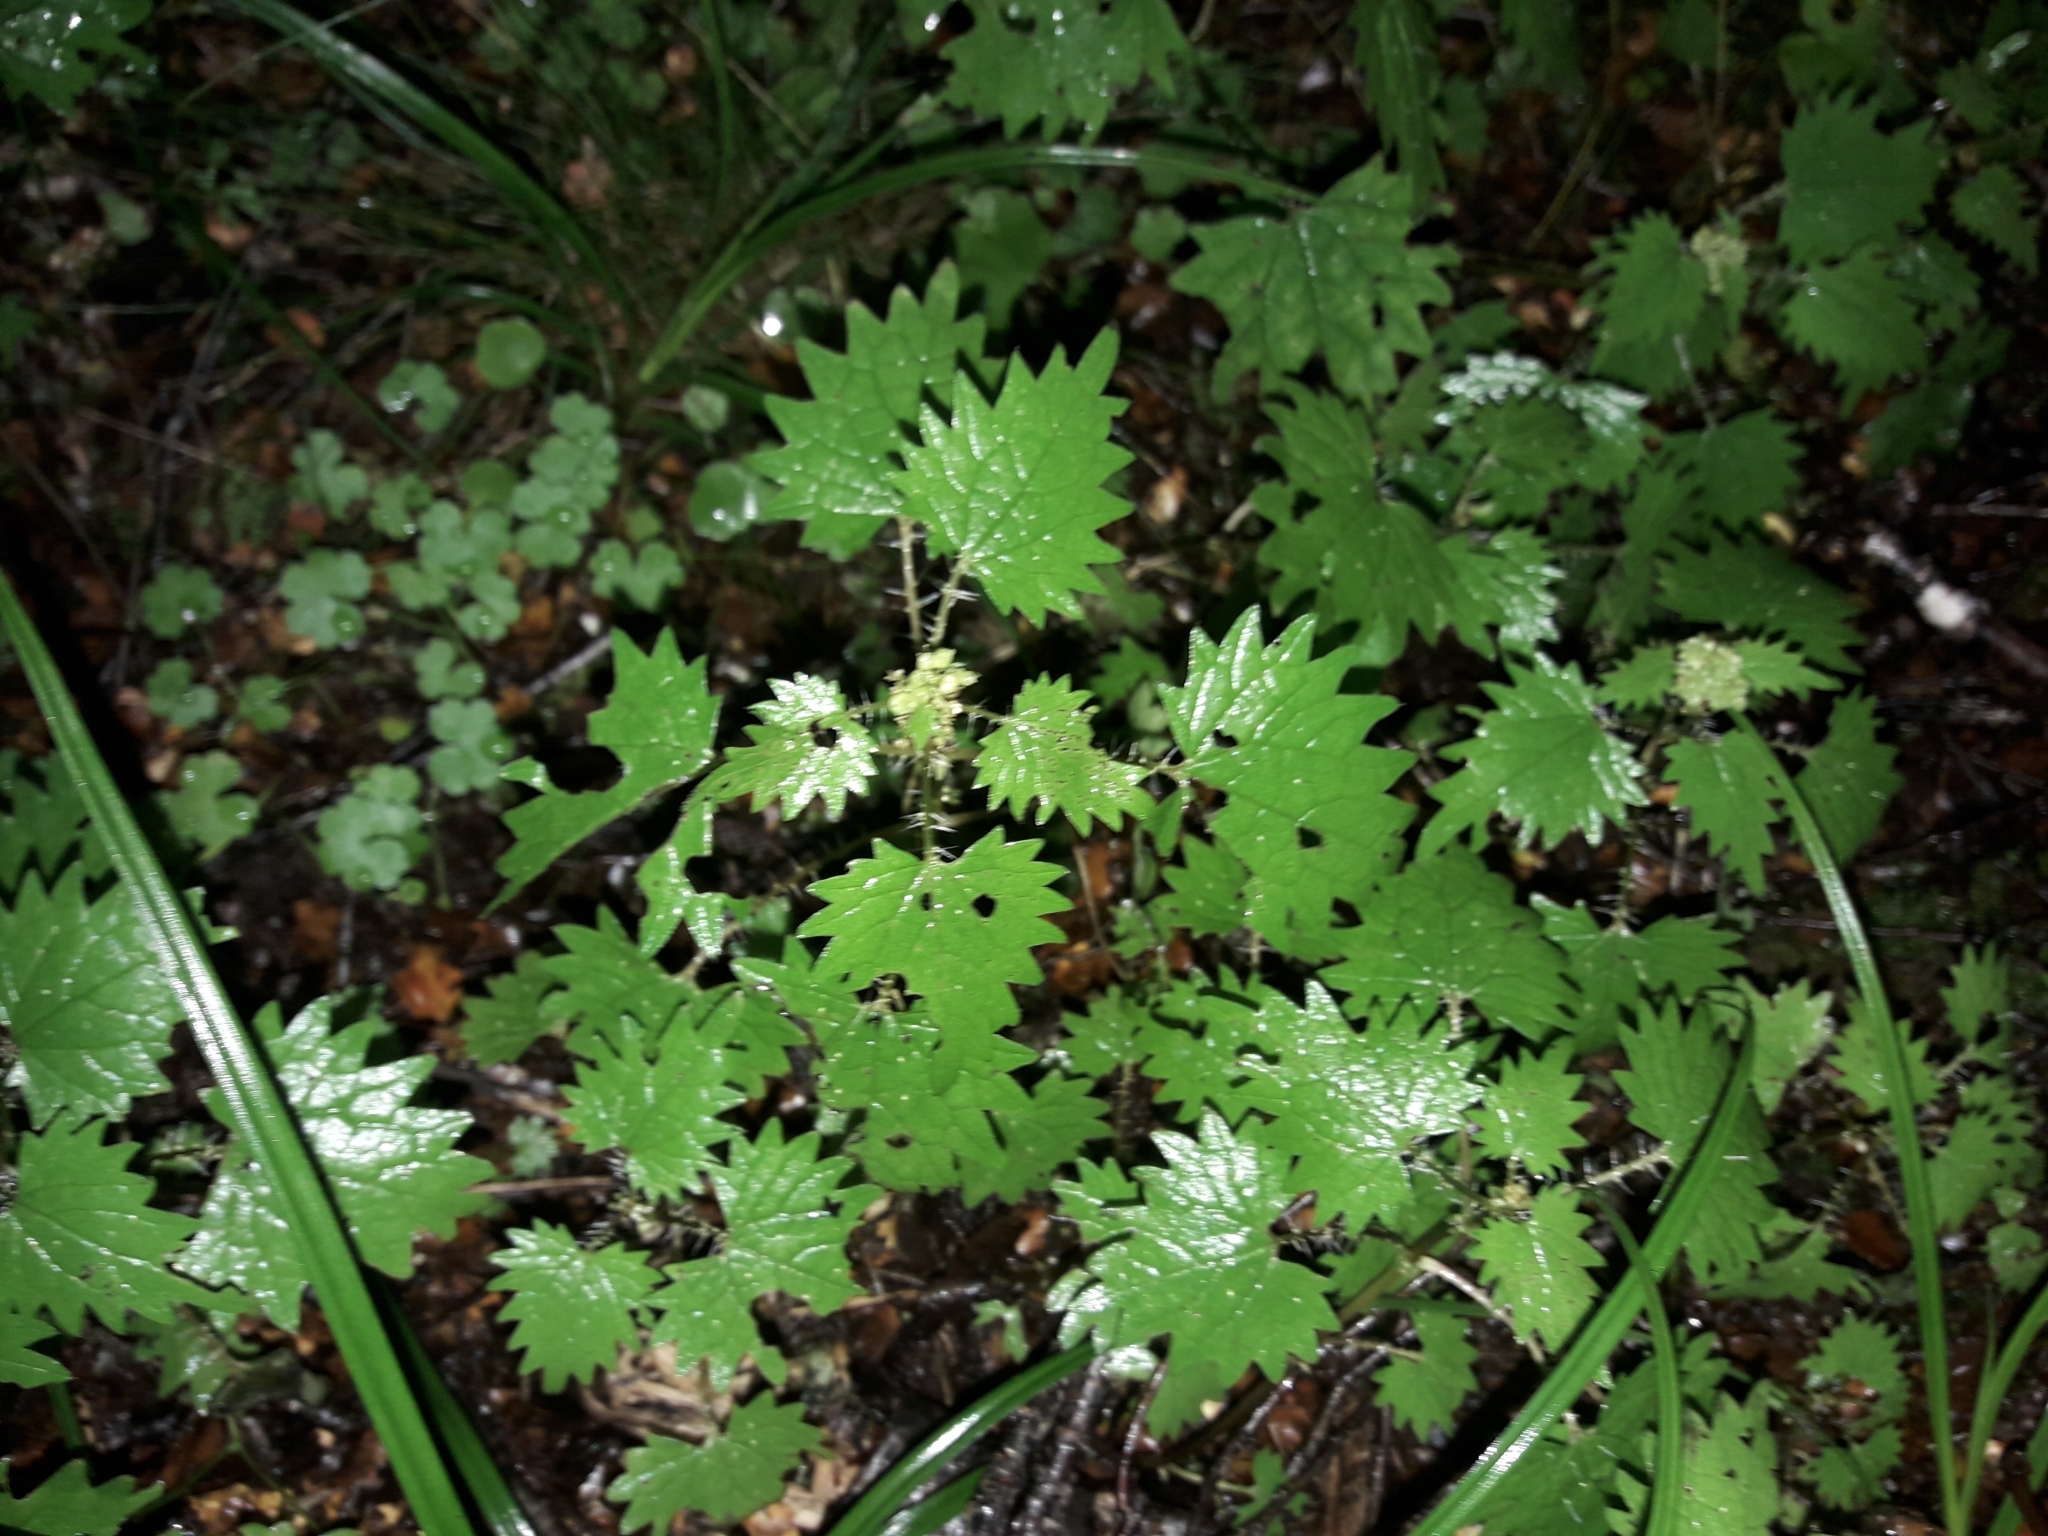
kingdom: Plantae
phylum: Tracheophyta
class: Magnoliopsida
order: Rosales
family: Urticaceae
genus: Urtica
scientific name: Urtica sykesii
